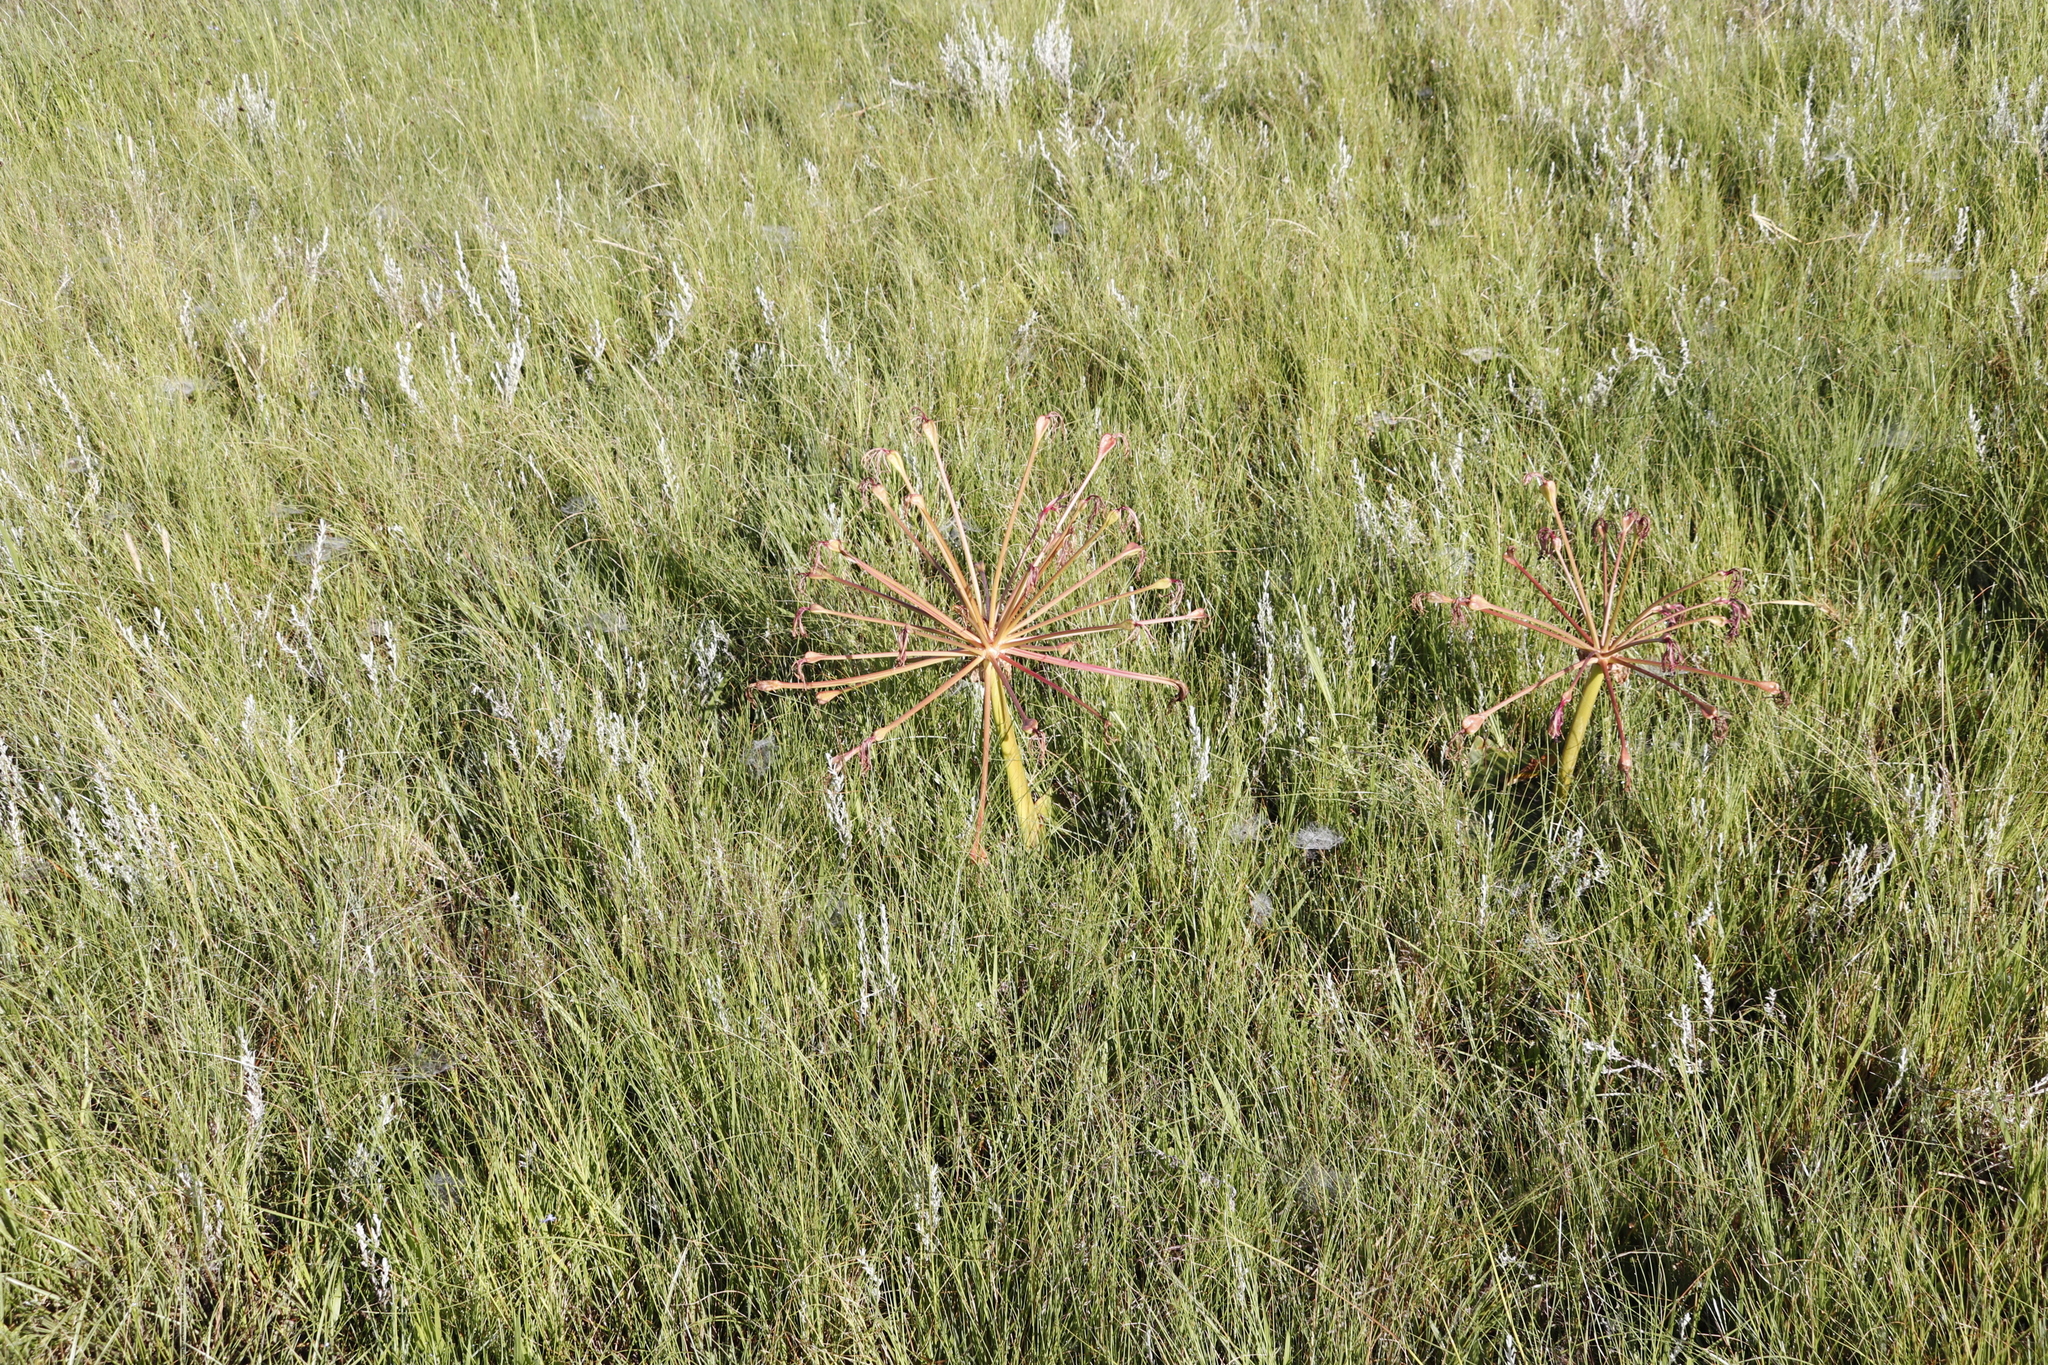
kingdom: Plantae
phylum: Tracheophyta
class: Liliopsida
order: Asparagales
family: Amaryllidaceae
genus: Brunsvigia
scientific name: Brunsvigia radulosa
